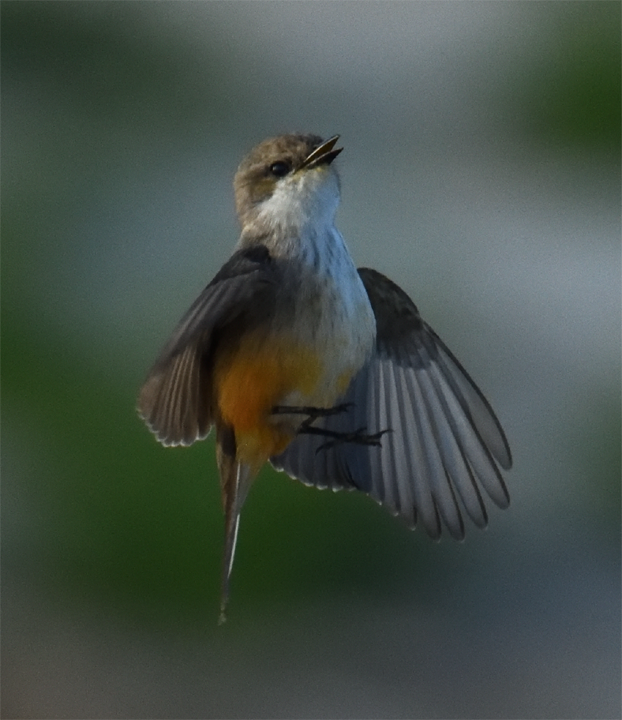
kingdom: Animalia
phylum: Chordata
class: Aves
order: Passeriformes
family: Tyrannidae
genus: Pyrocephalus
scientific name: Pyrocephalus rubinus
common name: Vermilion flycatcher
